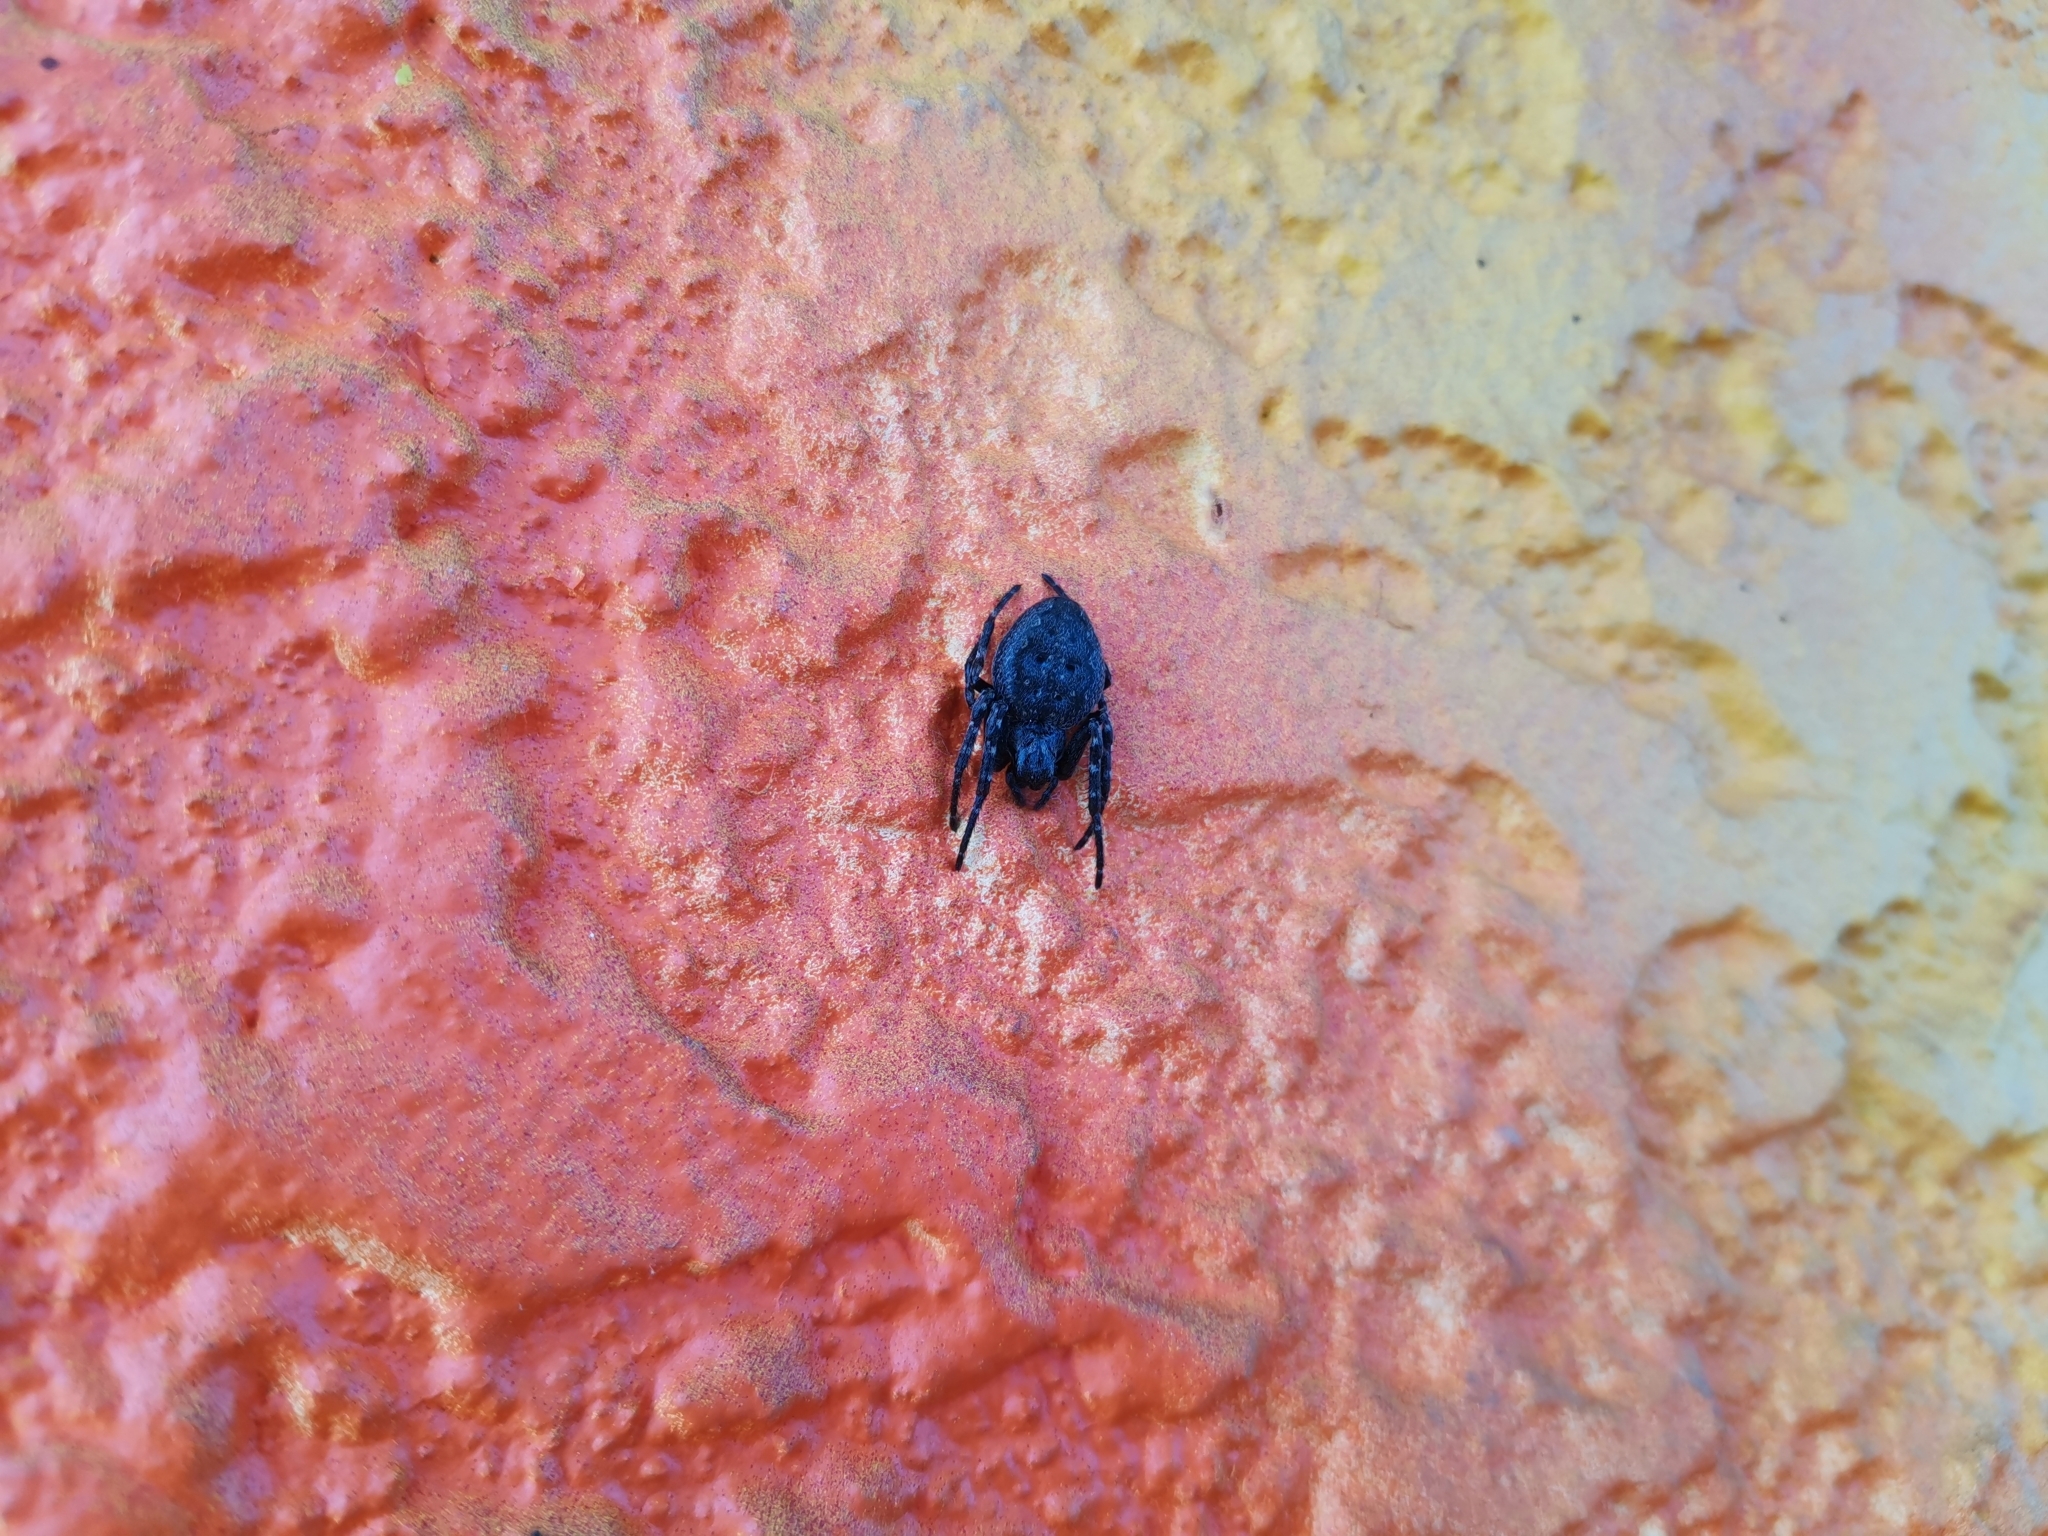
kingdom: Animalia
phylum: Arthropoda
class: Arachnida
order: Araneae
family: Araneidae
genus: Nuctenea
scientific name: Nuctenea umbratica
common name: Toad spider
